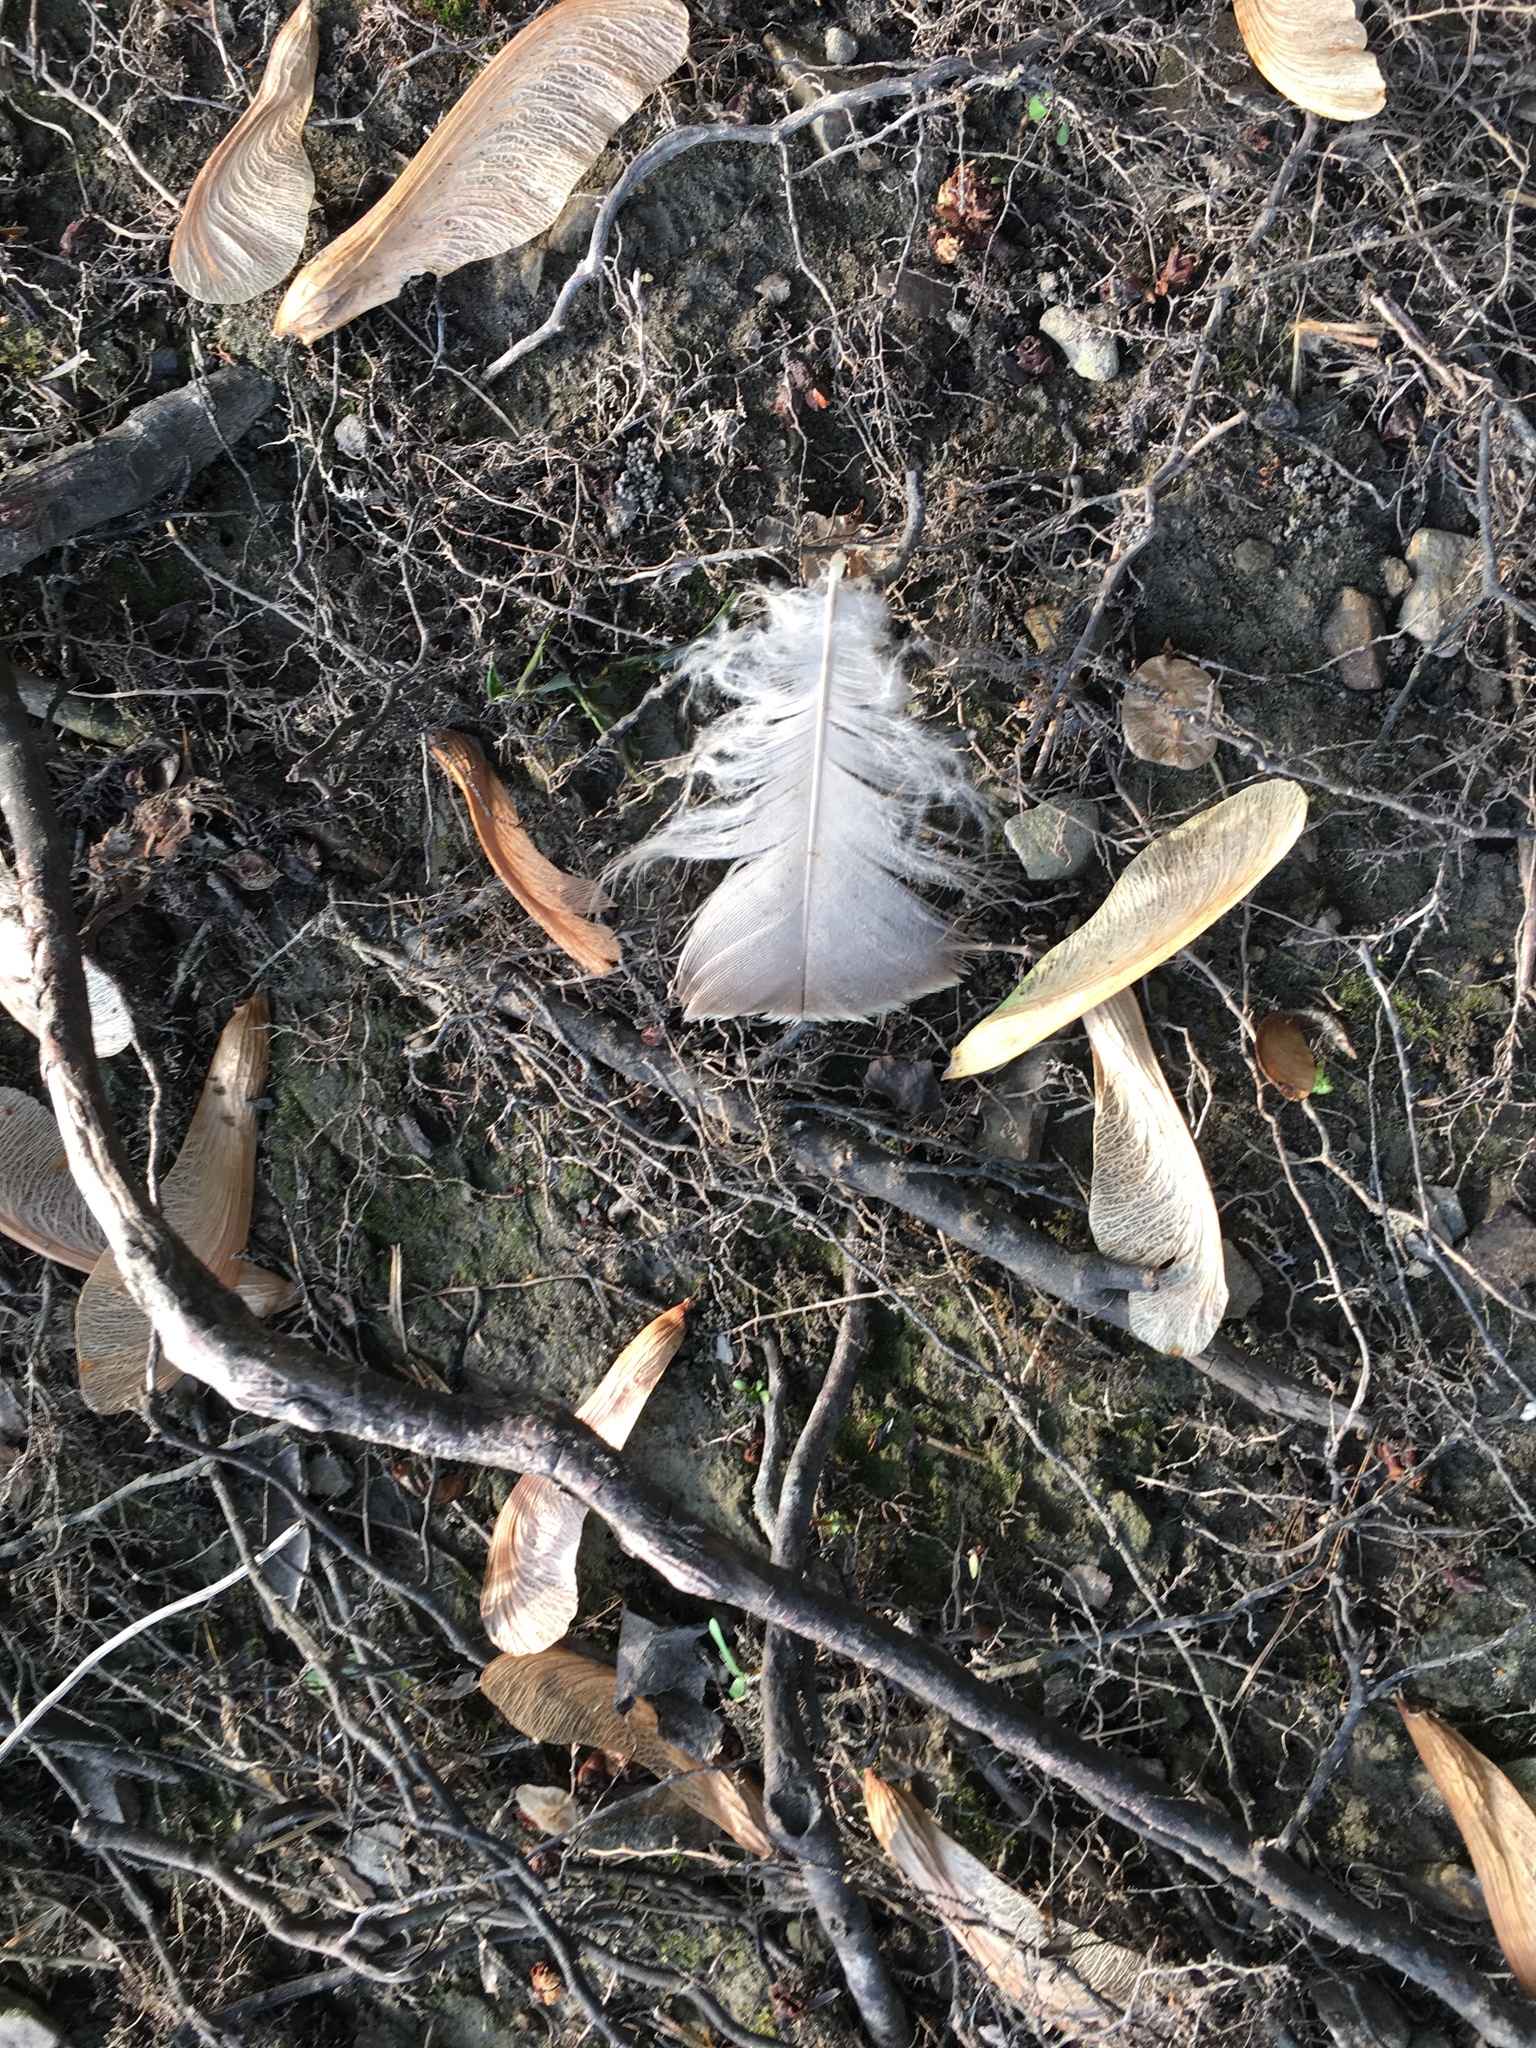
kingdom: Animalia
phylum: Chordata
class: Aves
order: Anseriformes
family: Anatidae
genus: Branta
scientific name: Branta canadensis
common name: Canada goose
